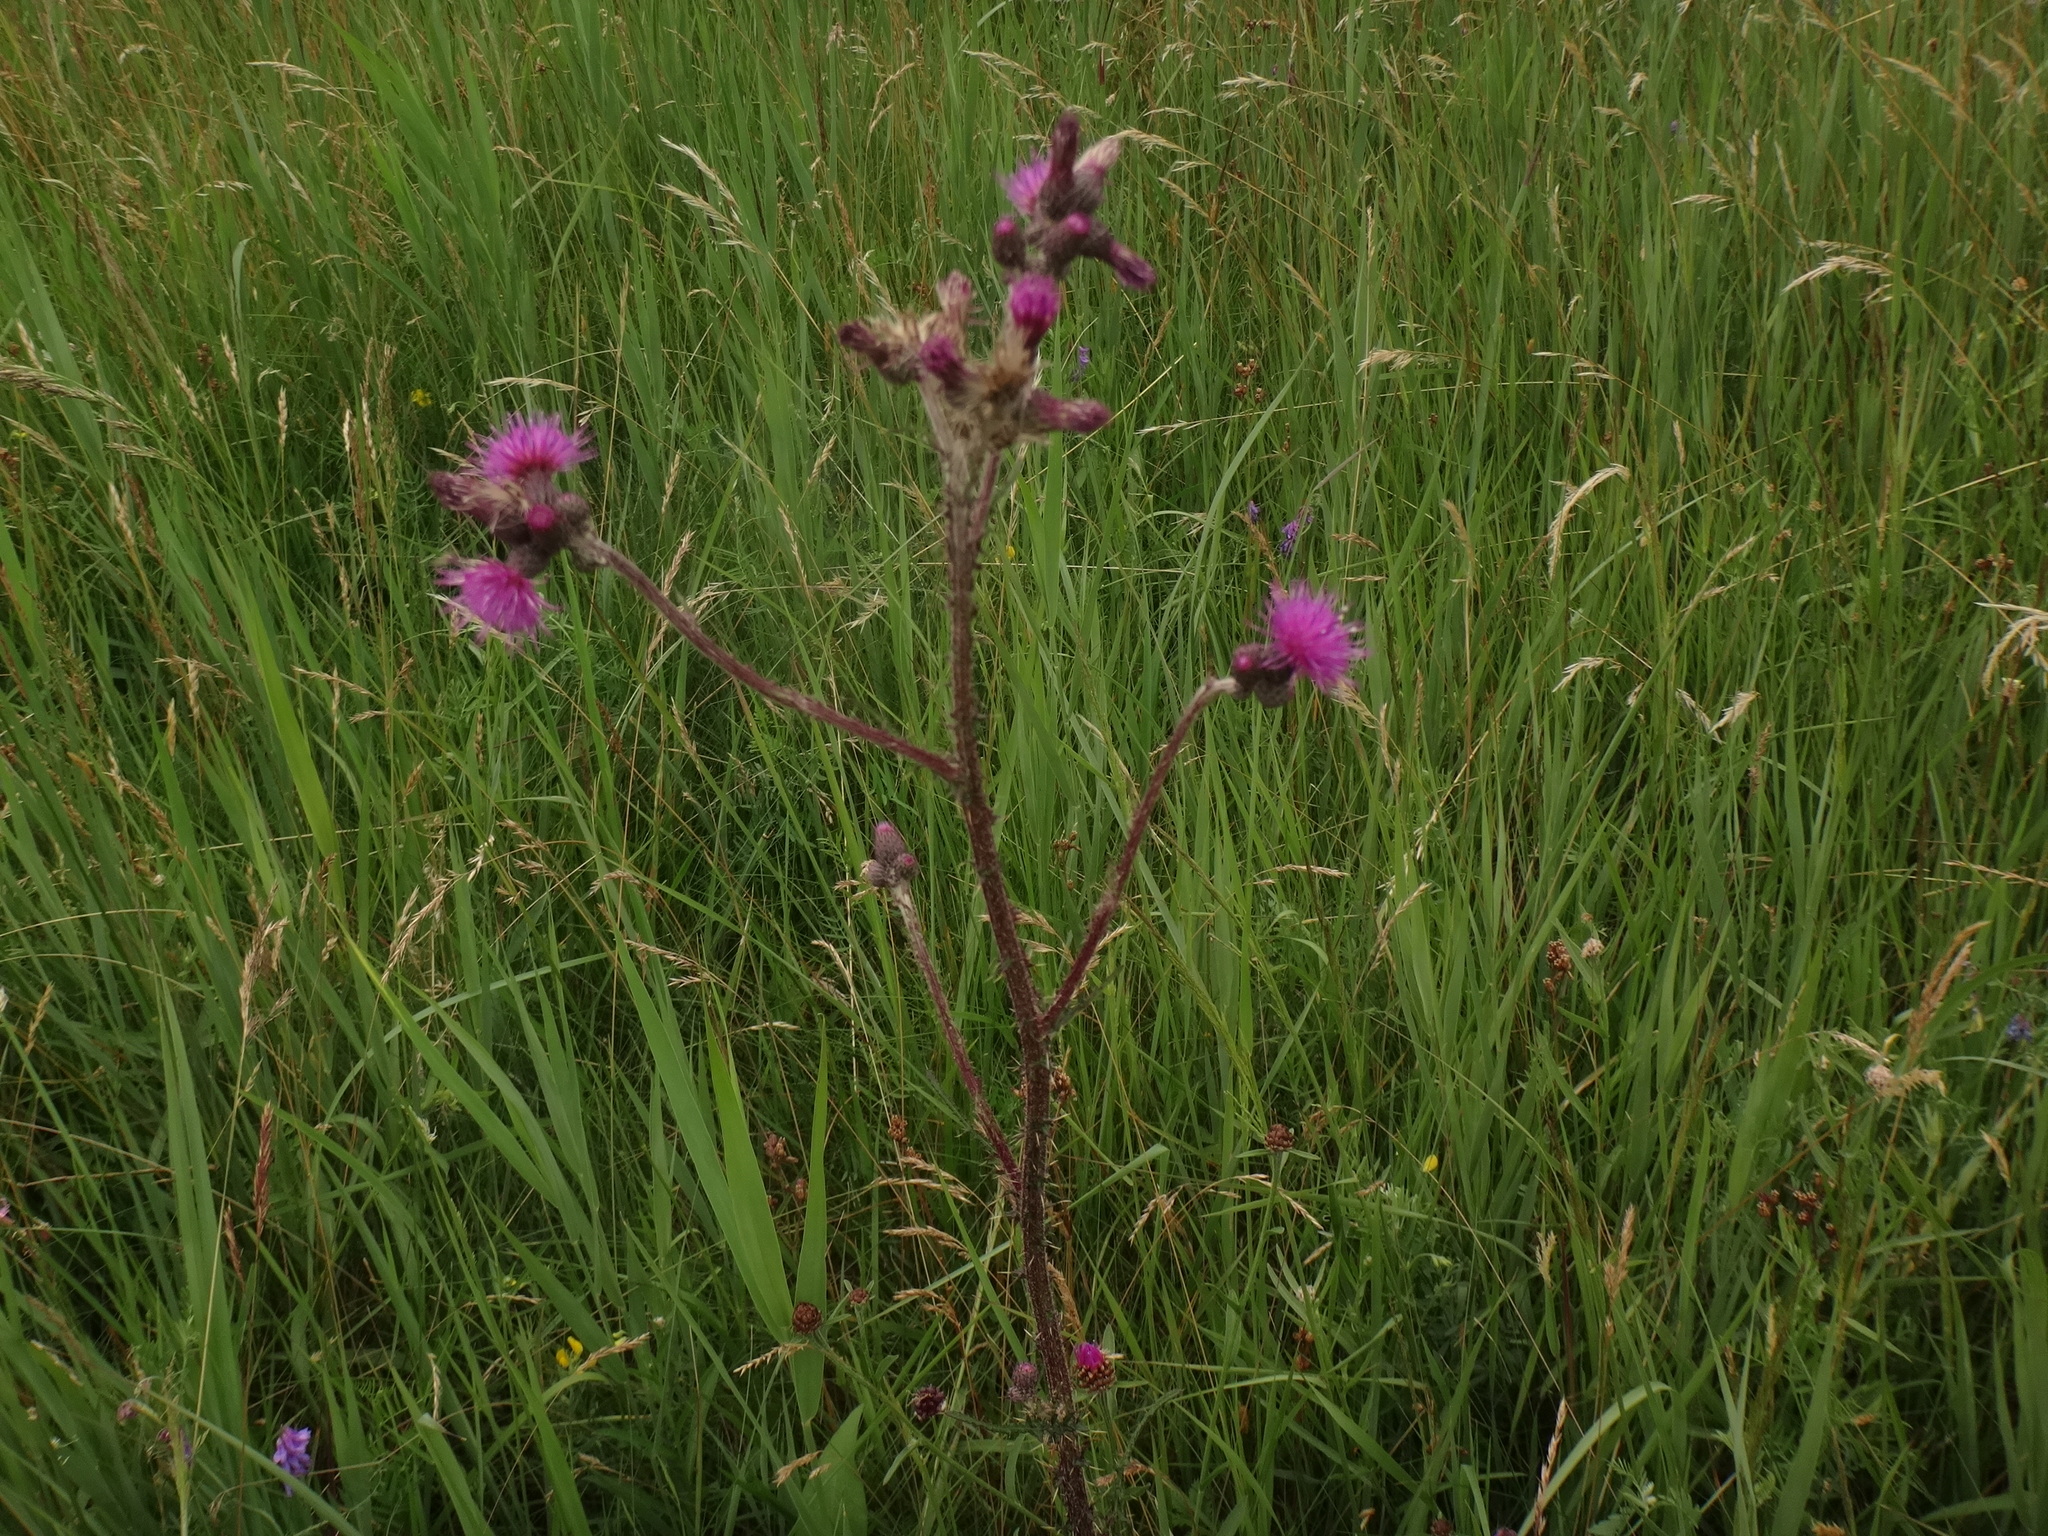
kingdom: Plantae
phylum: Tracheophyta
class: Magnoliopsida
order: Asterales
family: Asteraceae
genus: Cirsium
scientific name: Cirsium palustre
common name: Marsh thistle
